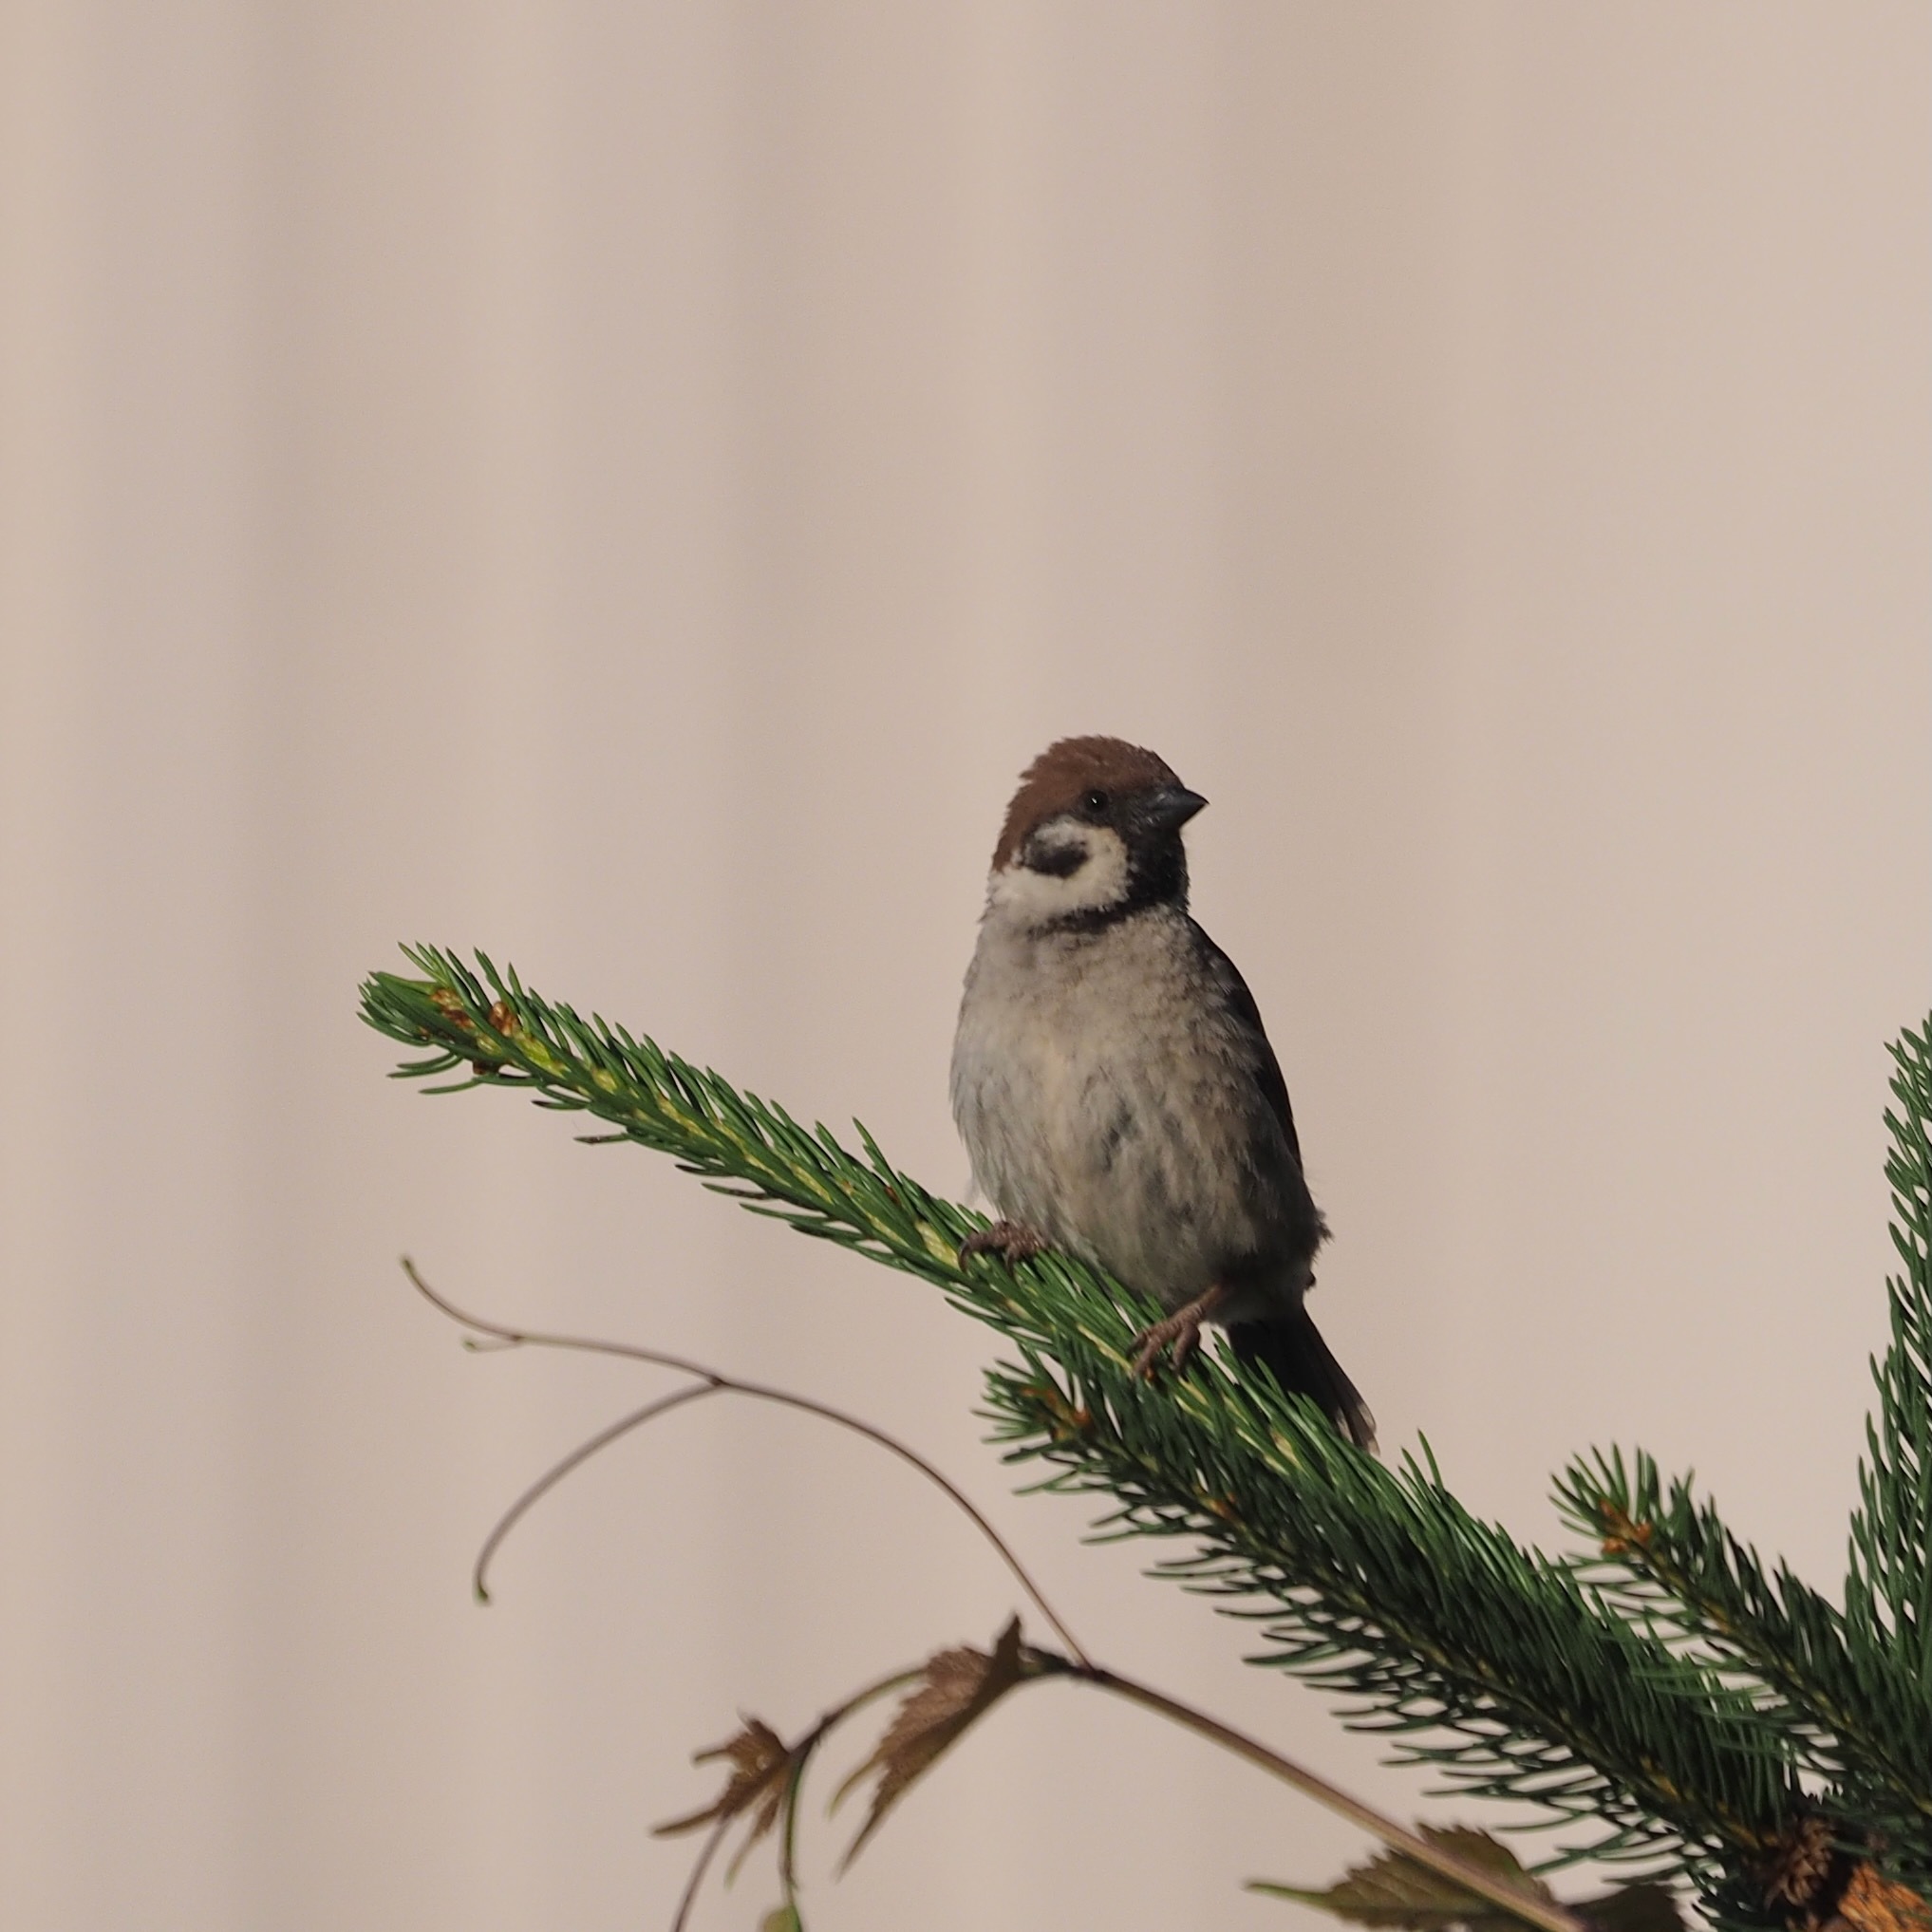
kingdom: Animalia
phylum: Chordata
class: Aves
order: Passeriformes
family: Passeridae
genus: Passer
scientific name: Passer montanus
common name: Eurasian tree sparrow
